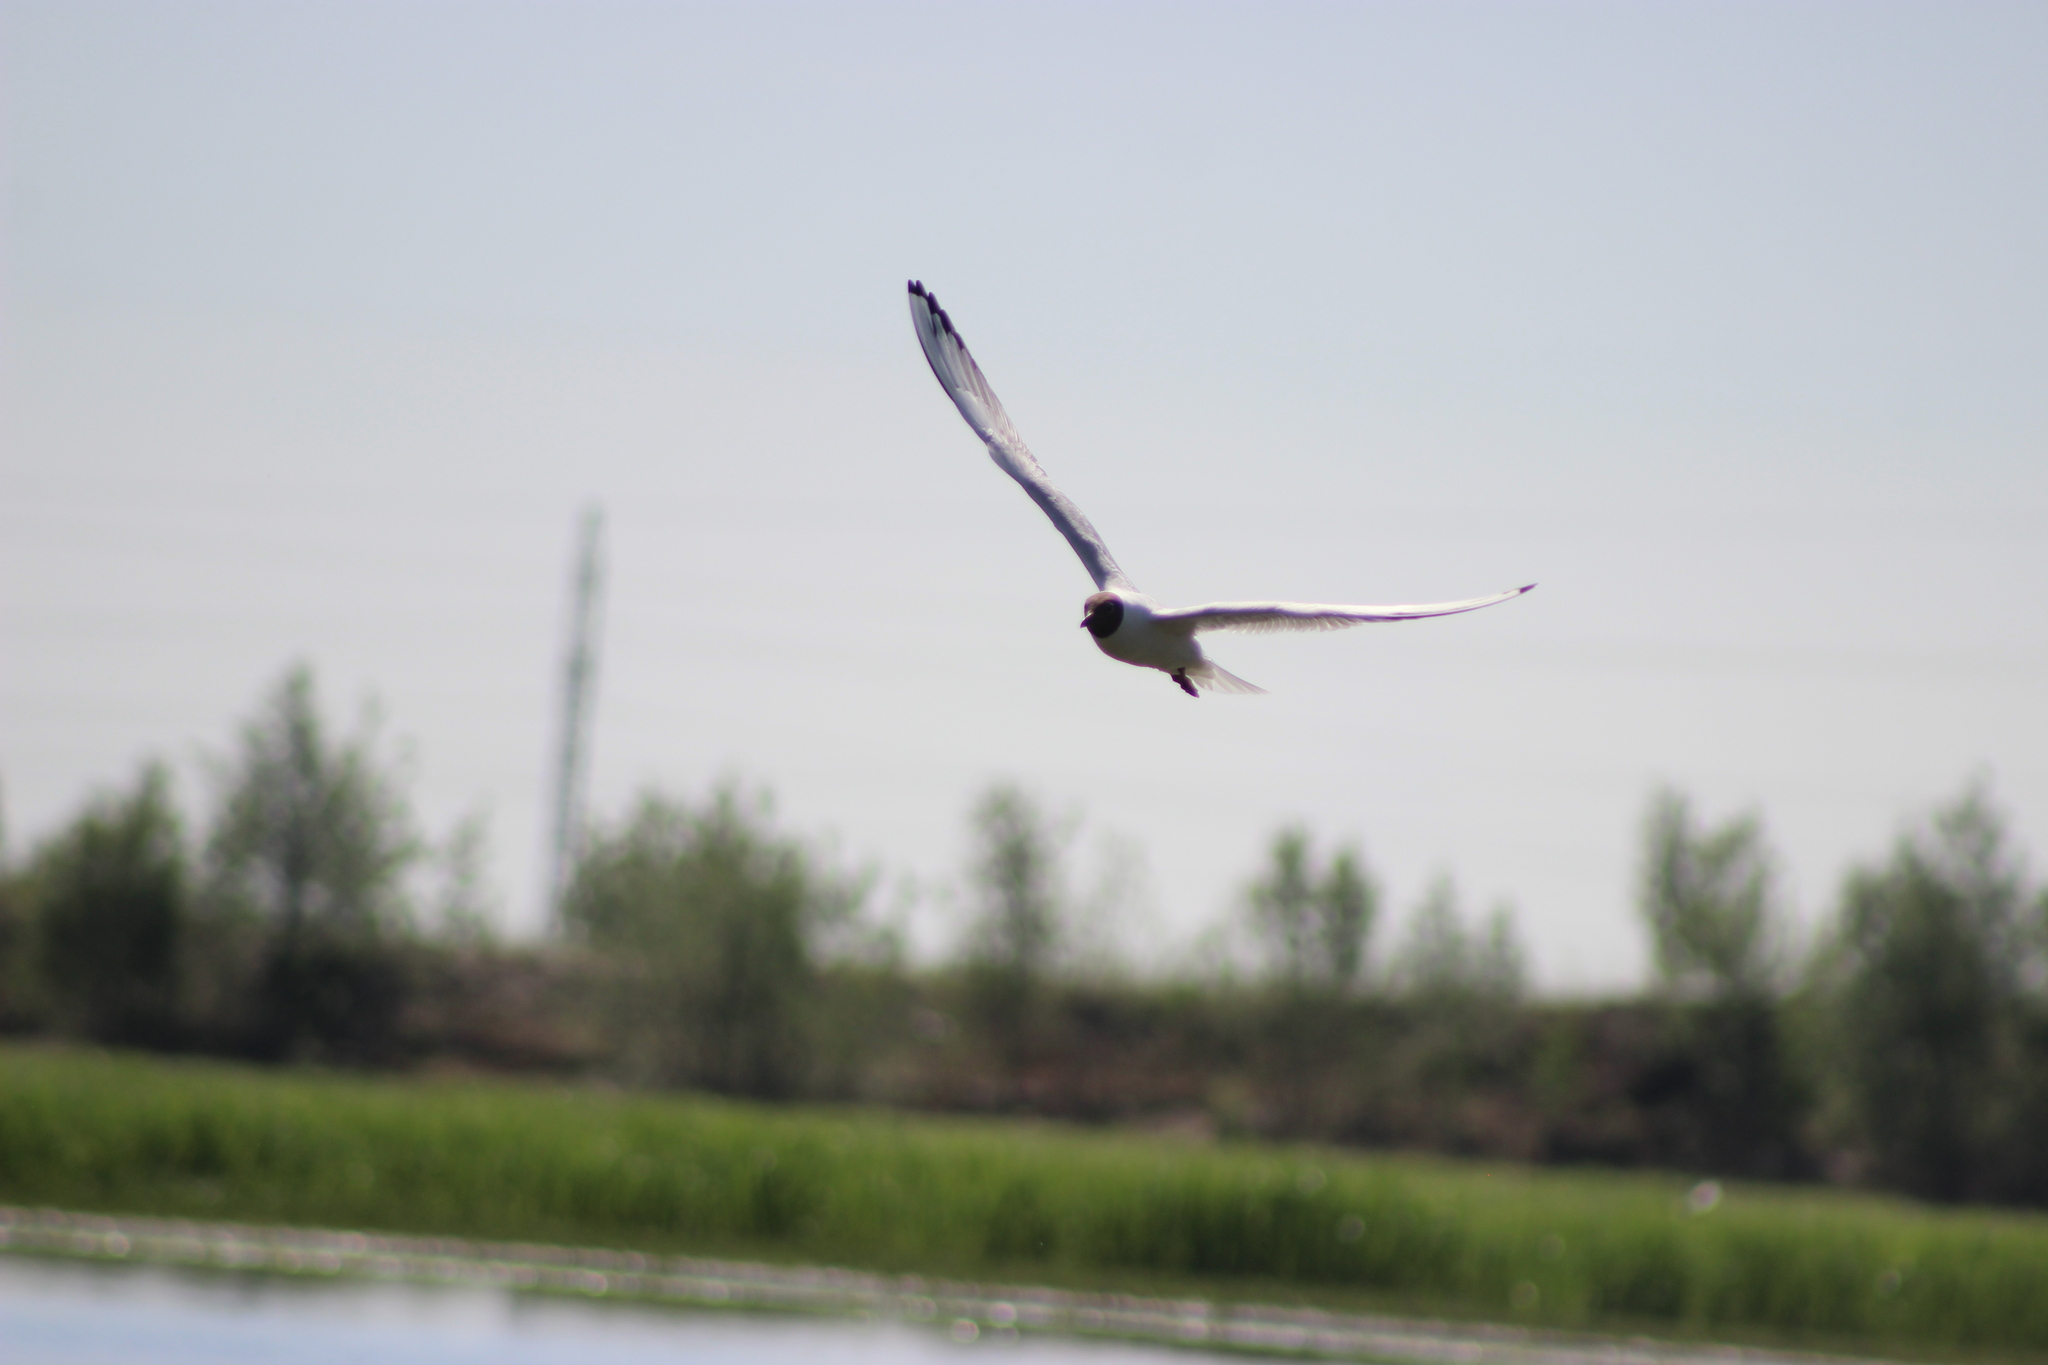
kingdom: Animalia
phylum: Chordata
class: Aves
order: Charadriiformes
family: Laridae
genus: Chroicocephalus
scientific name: Chroicocephalus ridibundus
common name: Black-headed gull
